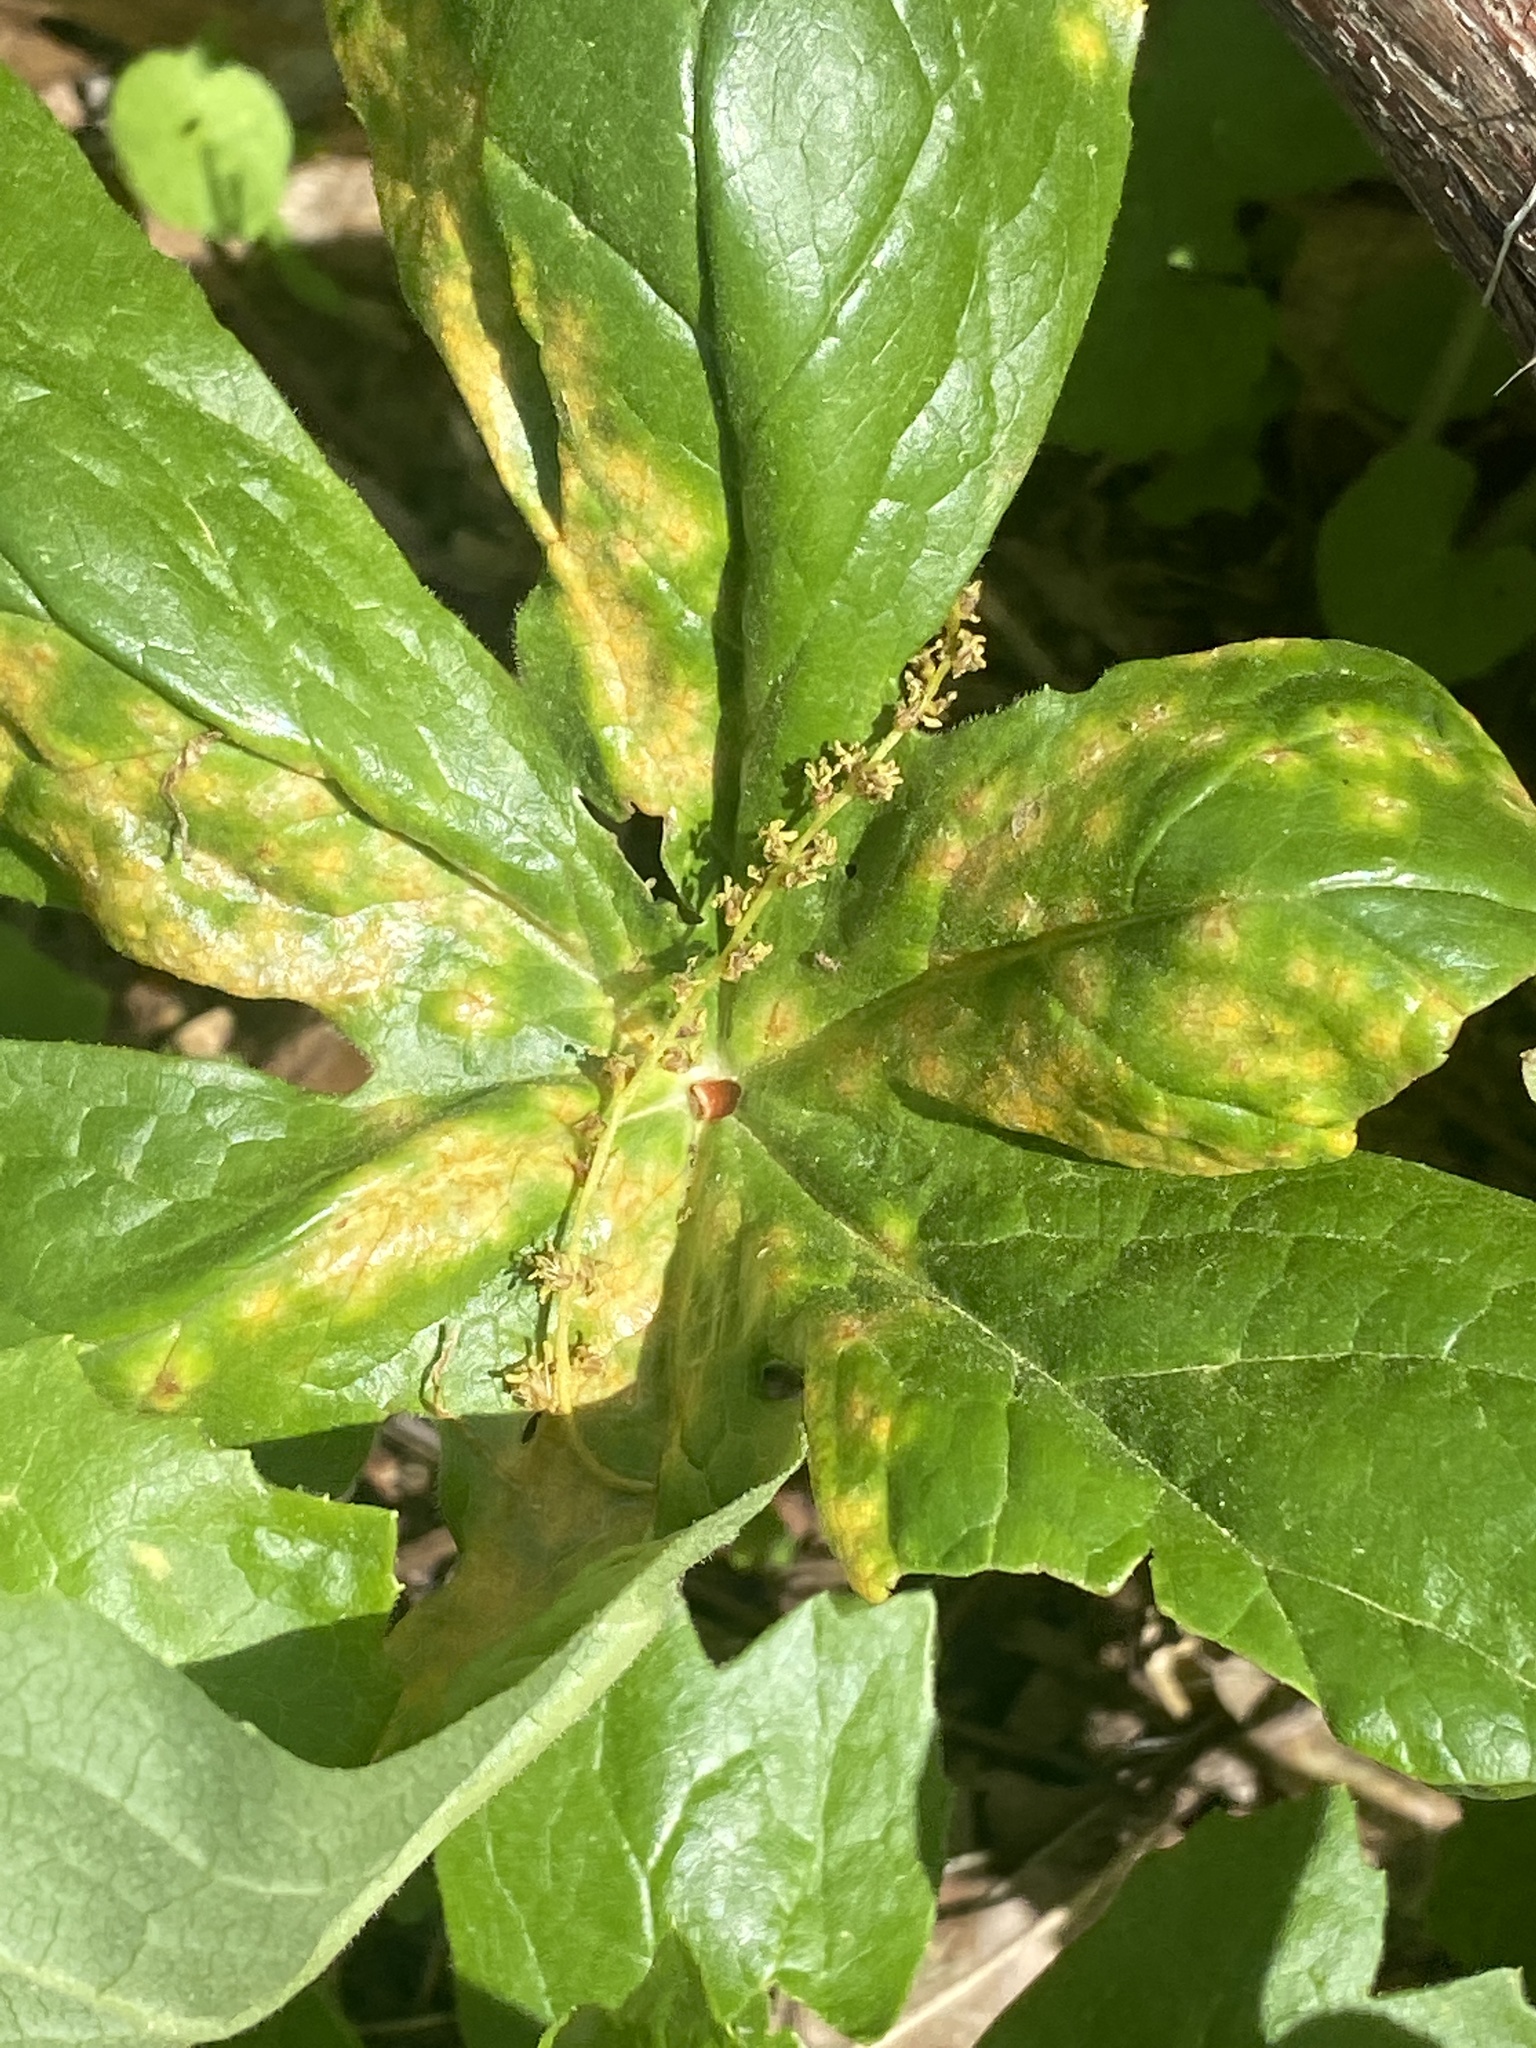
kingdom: Fungi
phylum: Basidiomycota
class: Pucciniomycetes
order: Pucciniales
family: Pucciniaceae
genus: Puccinia
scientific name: Puccinia podophylli
